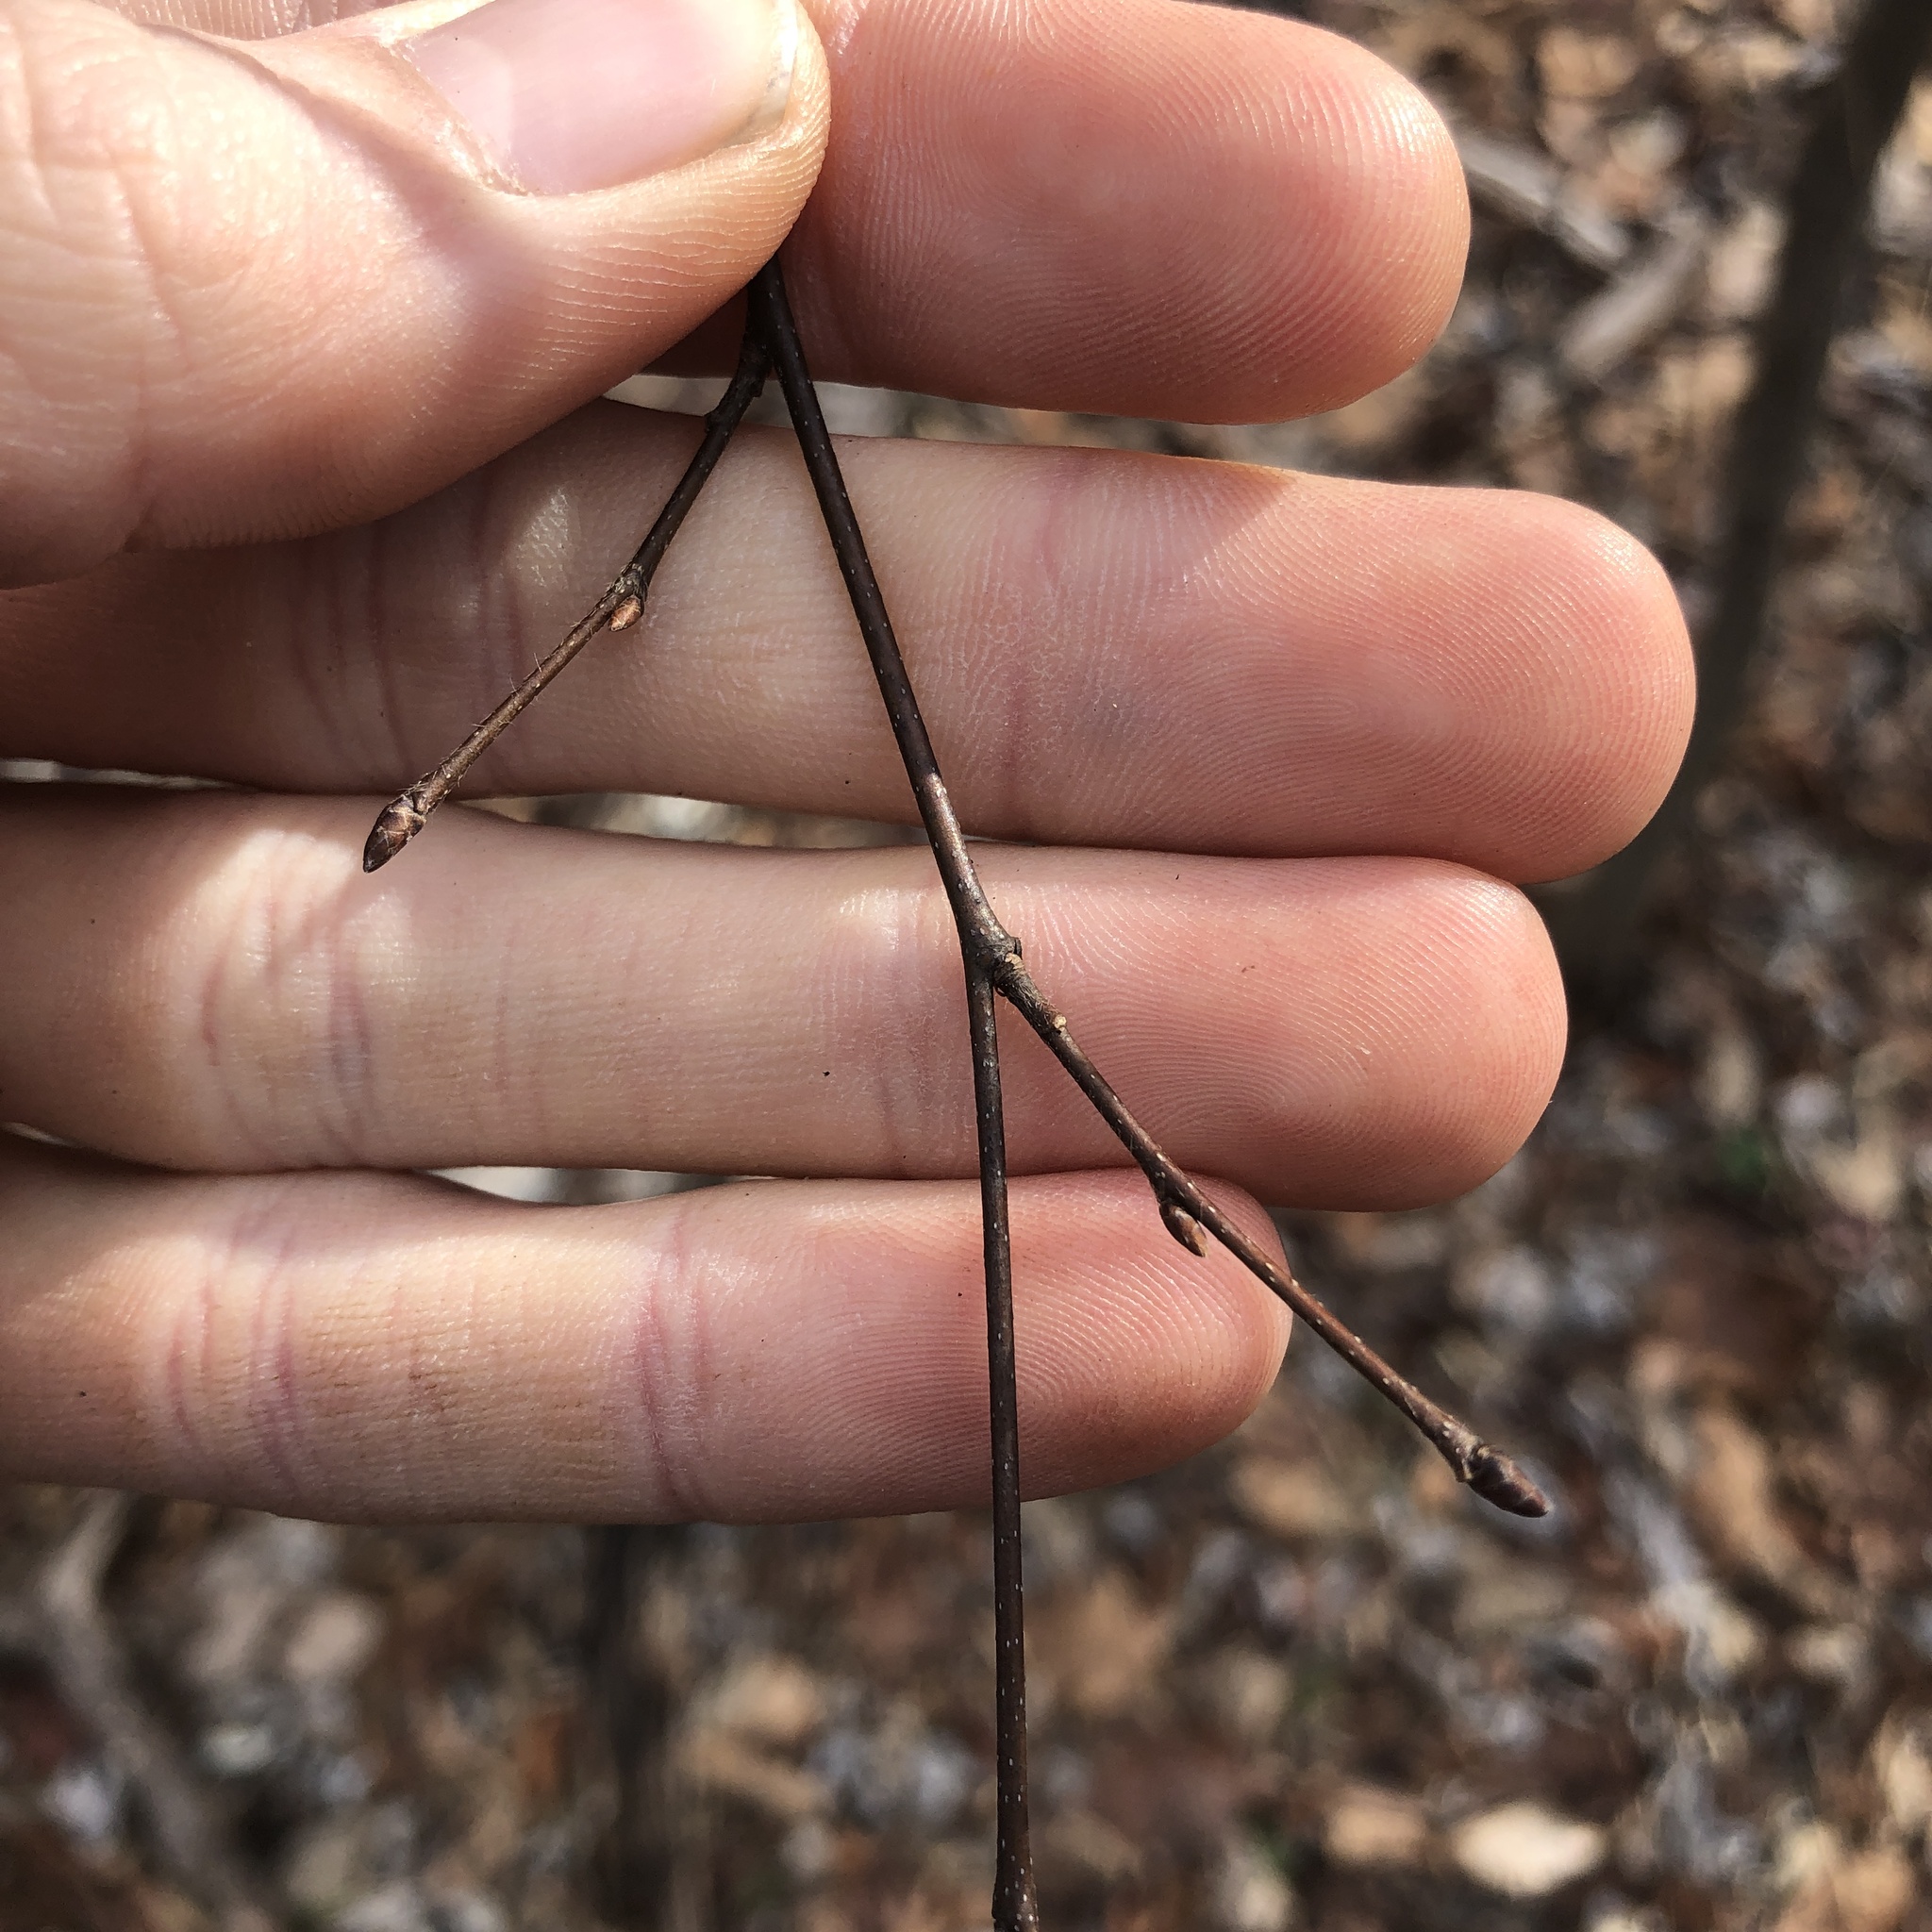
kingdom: Plantae
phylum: Tracheophyta
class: Magnoliopsida
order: Fagales
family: Betulaceae
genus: Carpinus
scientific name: Carpinus caroliniana
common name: American hornbeam
